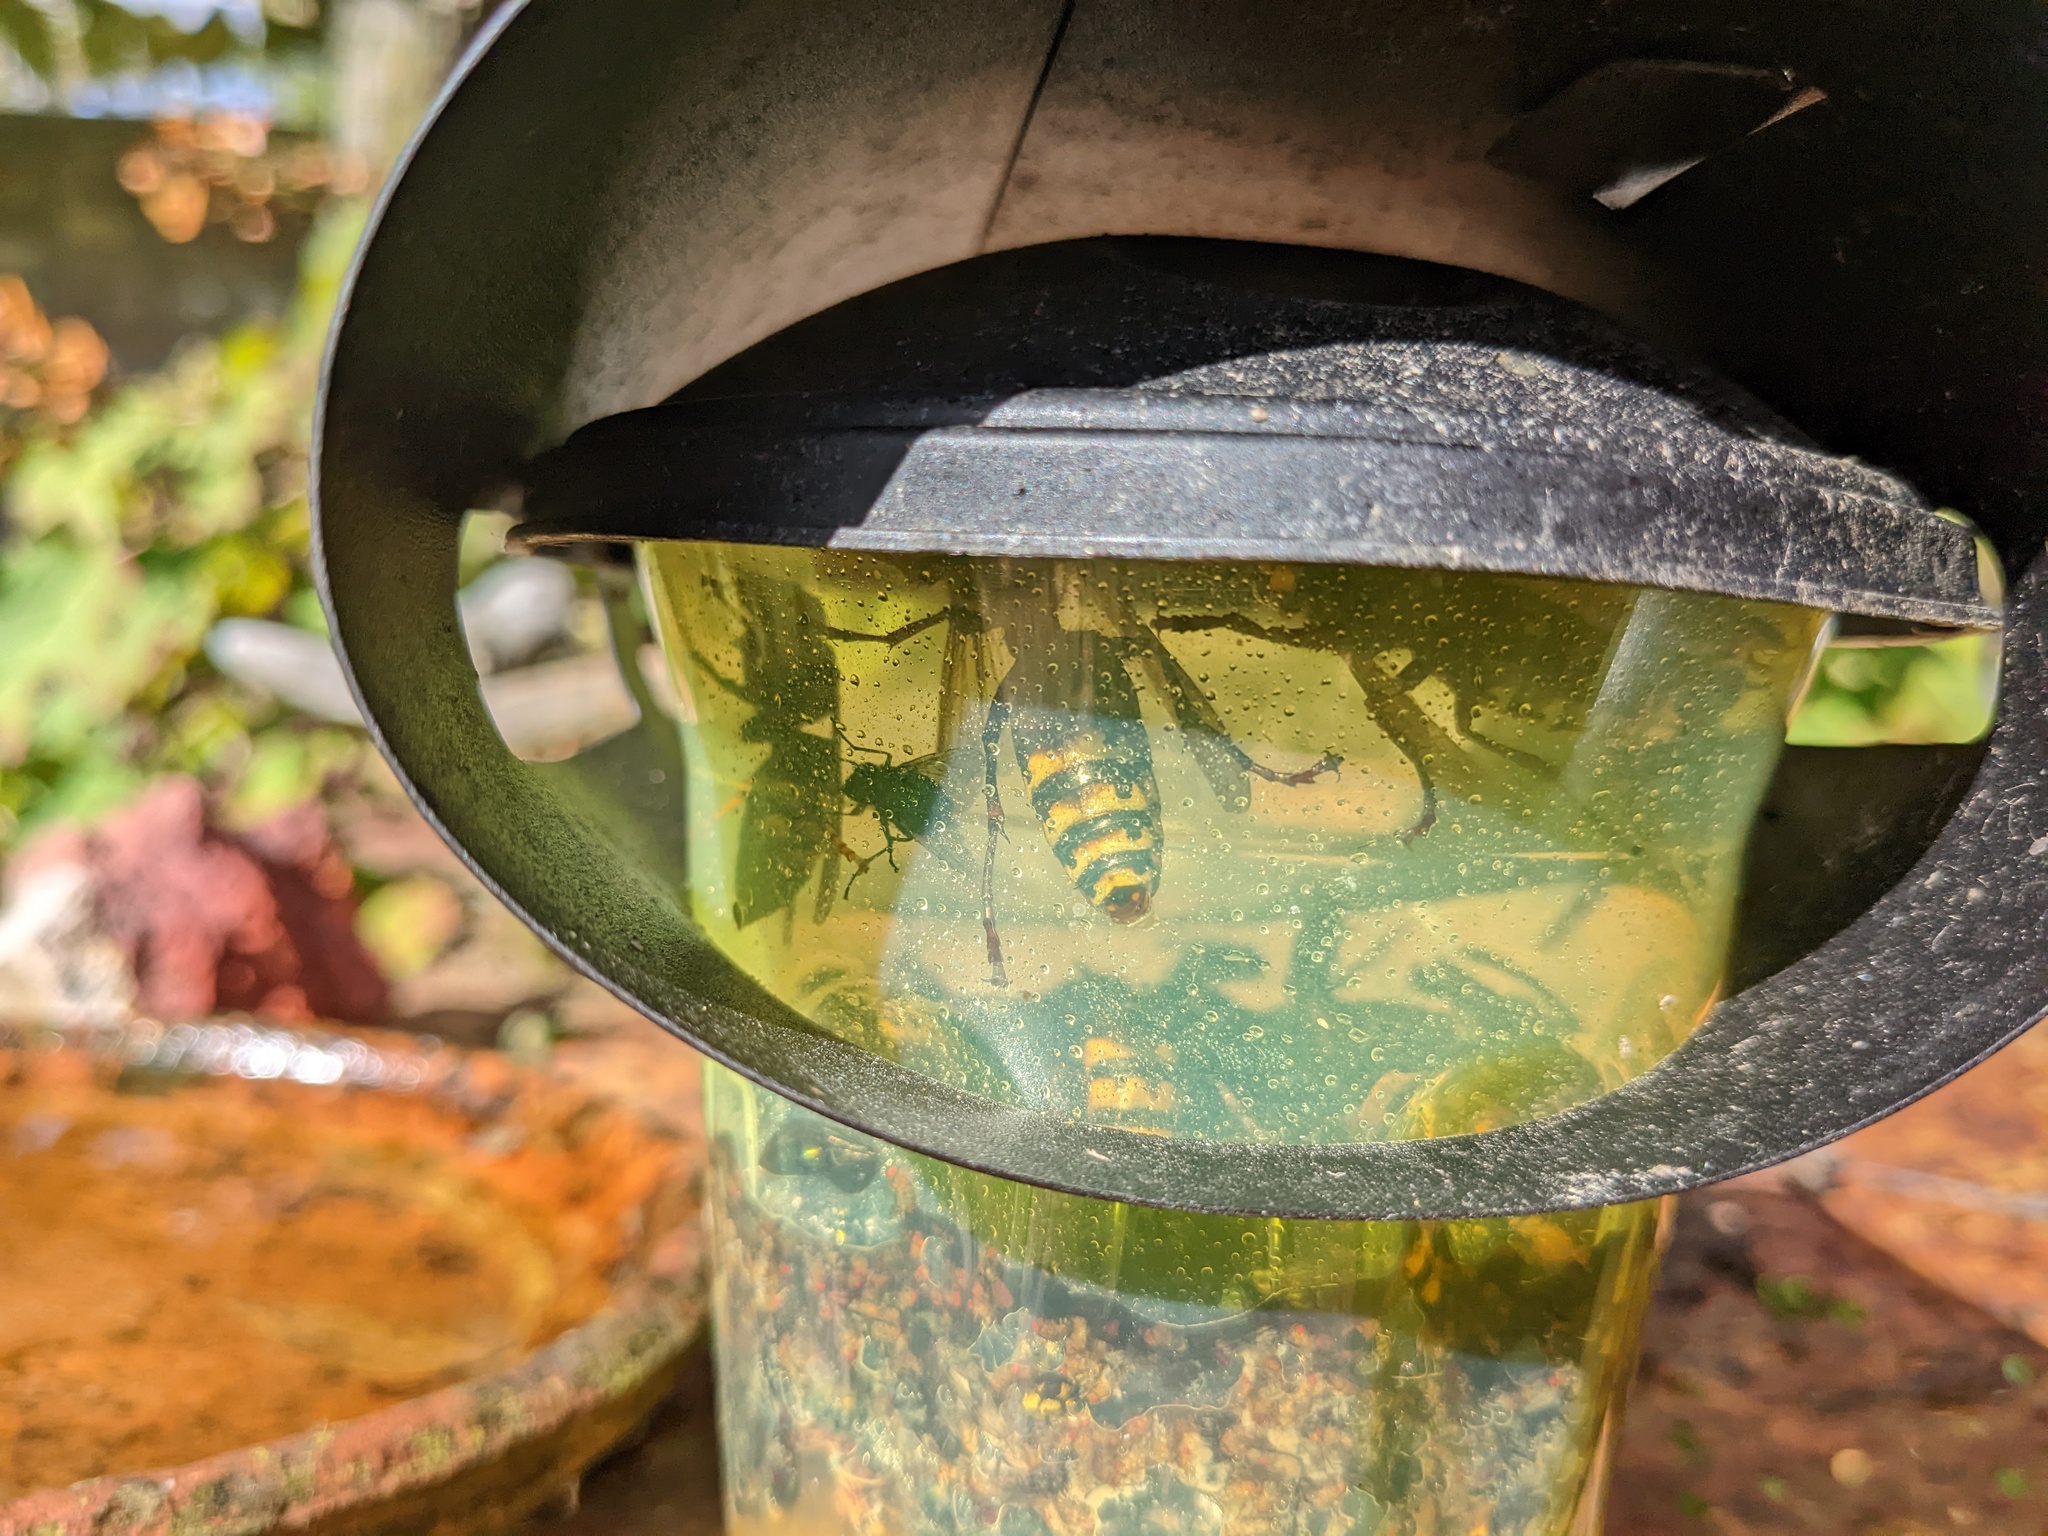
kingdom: Animalia
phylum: Arthropoda
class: Insecta
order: Hymenoptera
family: Vespidae
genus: Vespa
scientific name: Vespa crabro
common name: Hornet
